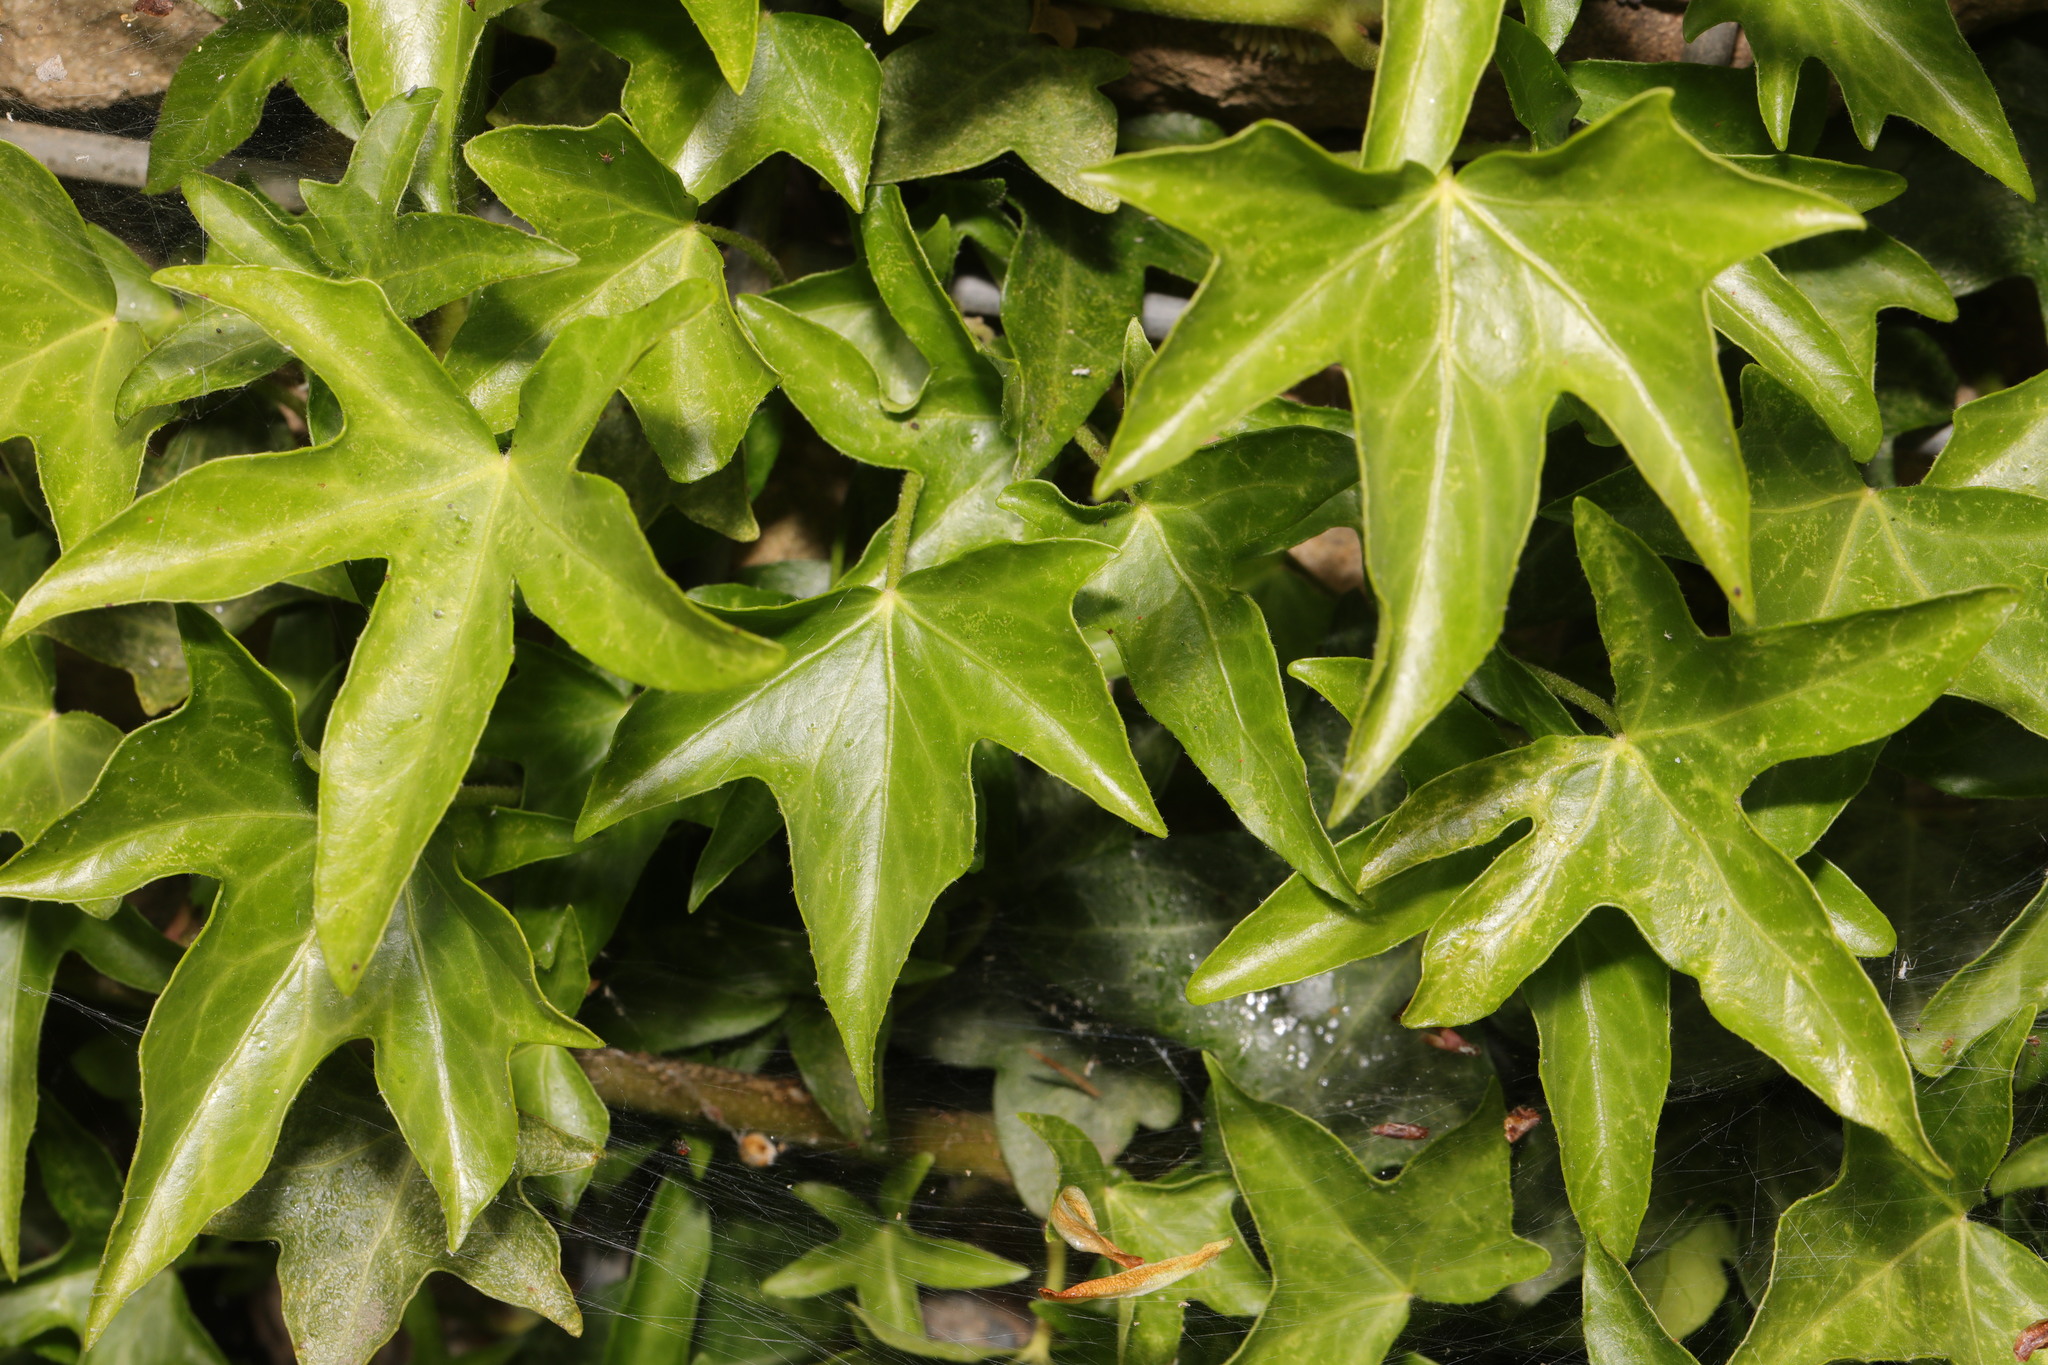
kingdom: Plantae
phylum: Tracheophyta
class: Magnoliopsida
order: Apiales
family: Araliaceae
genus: Hedera
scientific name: Hedera helix
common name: Ivy
